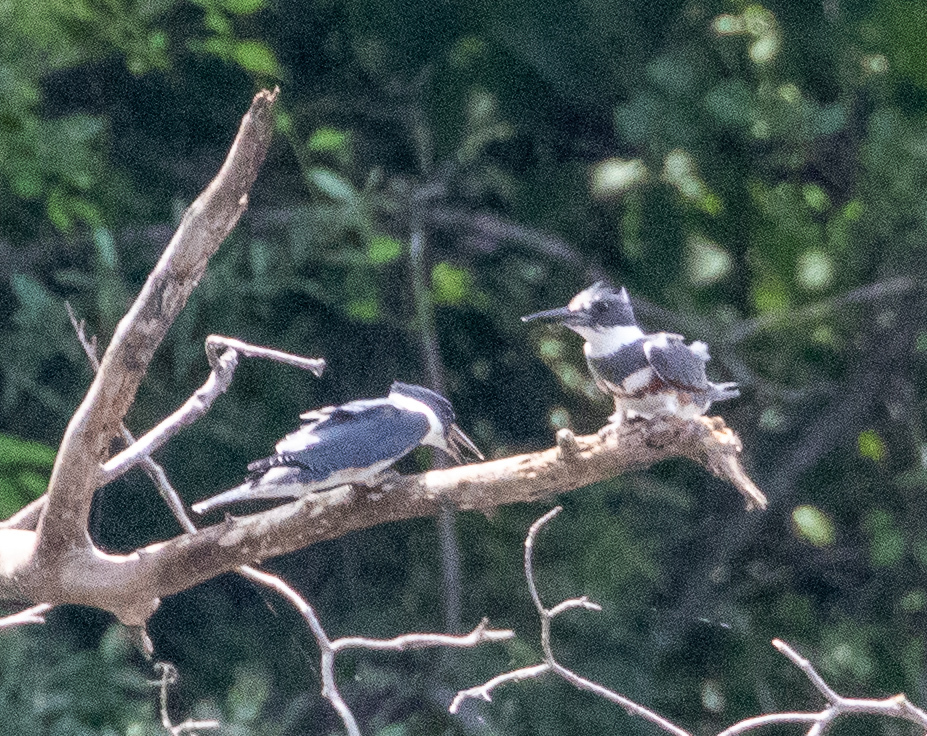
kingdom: Animalia
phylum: Chordata
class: Aves
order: Coraciiformes
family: Alcedinidae
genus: Megaceryle
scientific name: Megaceryle alcyon
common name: Belted kingfisher
